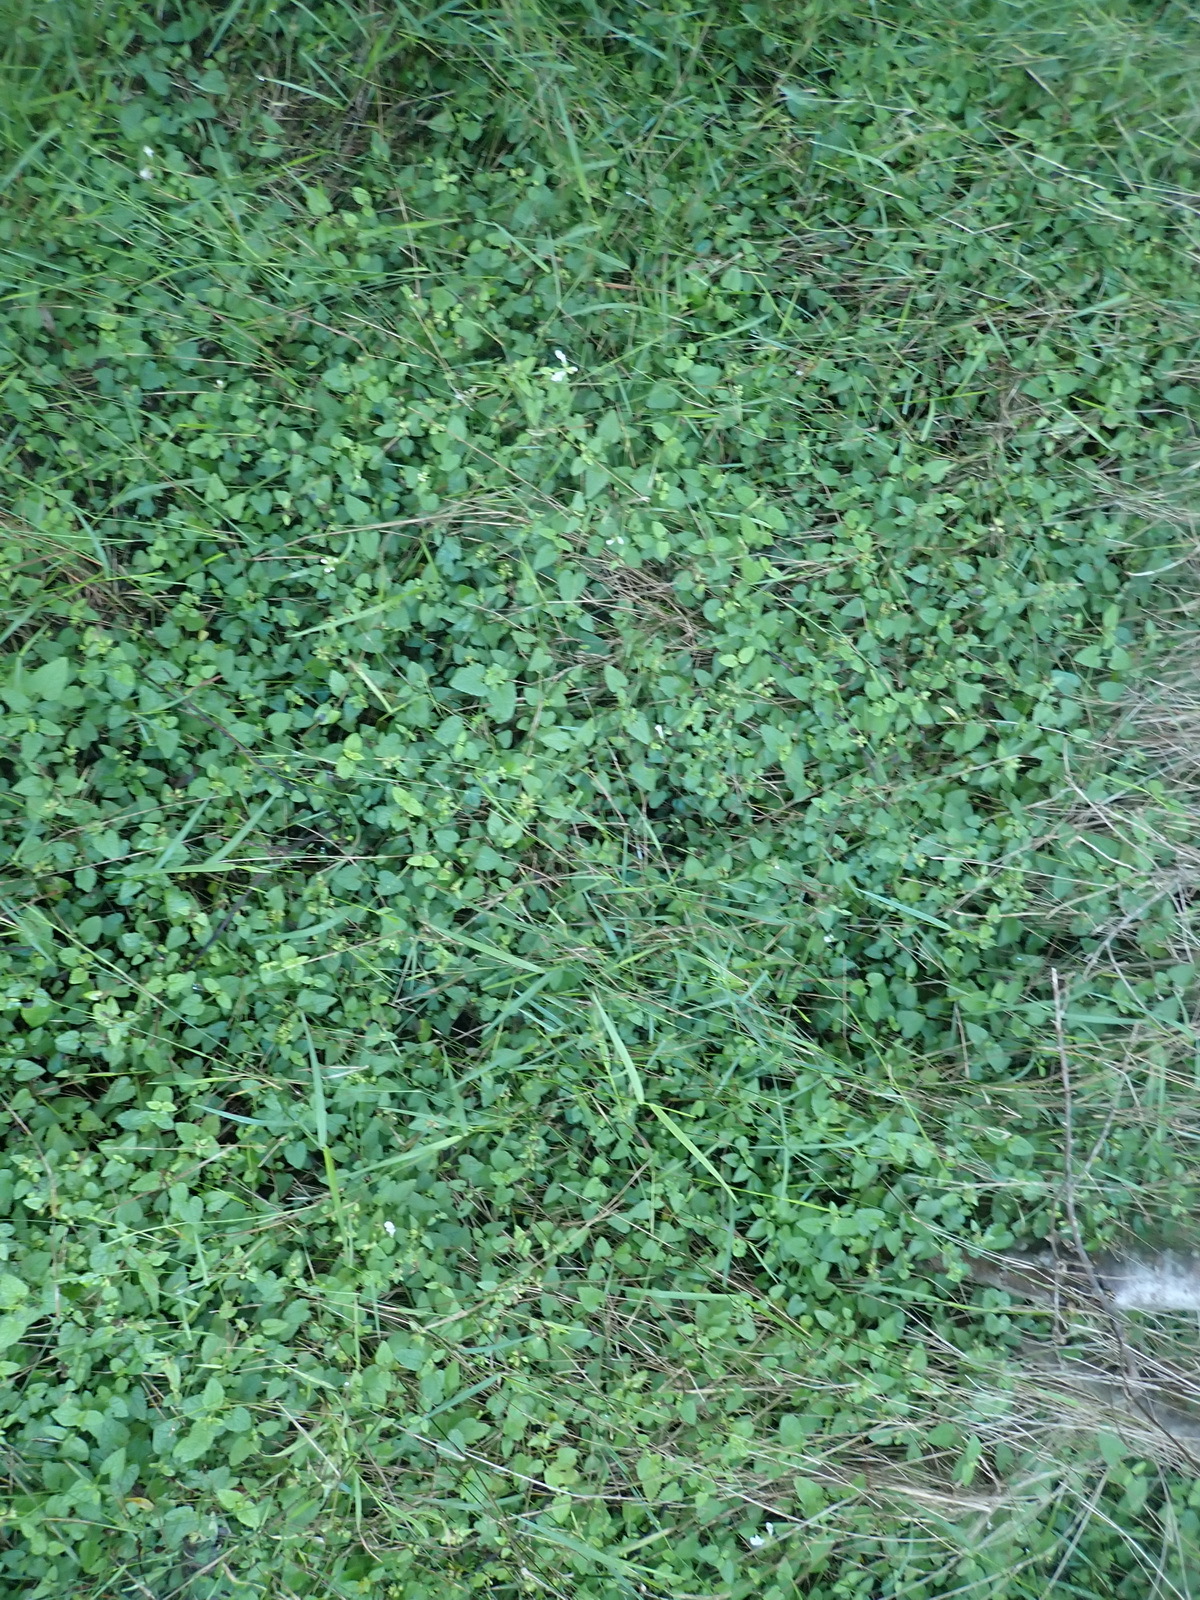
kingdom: Plantae
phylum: Tracheophyta
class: Magnoliopsida
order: Lamiales
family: Lamiaceae
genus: Stachys
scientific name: Stachys aethiopica
